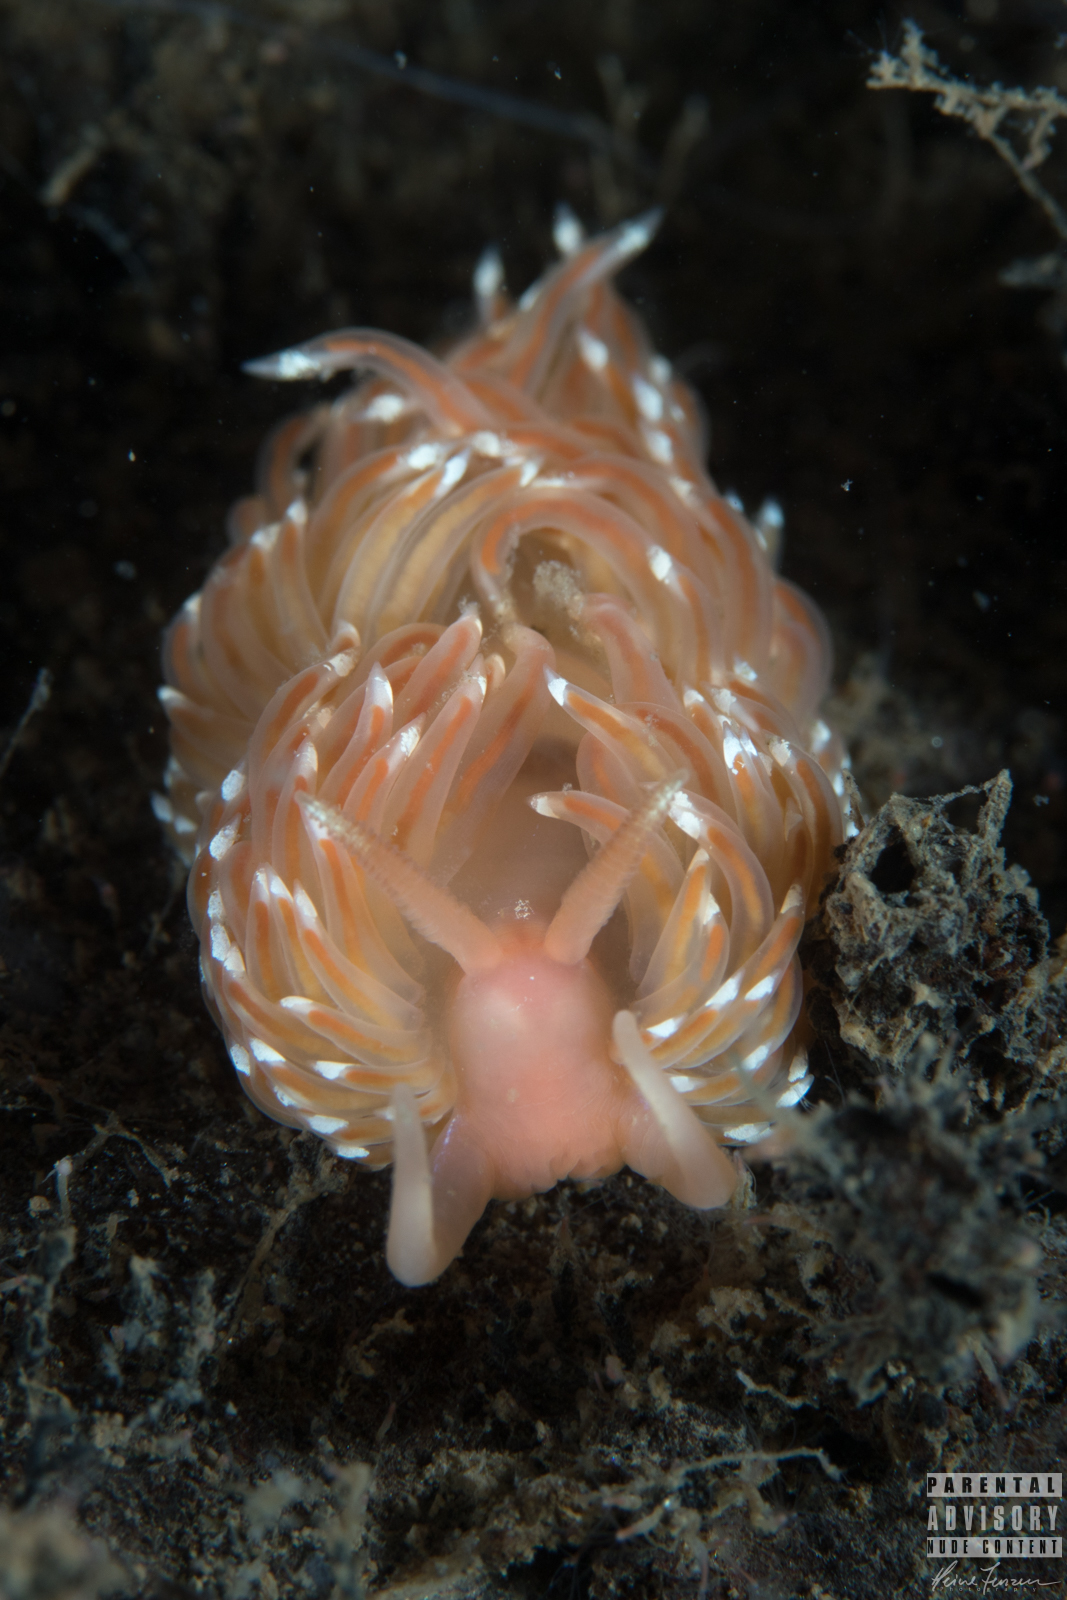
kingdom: Animalia
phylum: Mollusca
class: Gastropoda
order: Nudibranchia
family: Facelinidae
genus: Facelina
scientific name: Facelina bostoniensis
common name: Boston facelina
